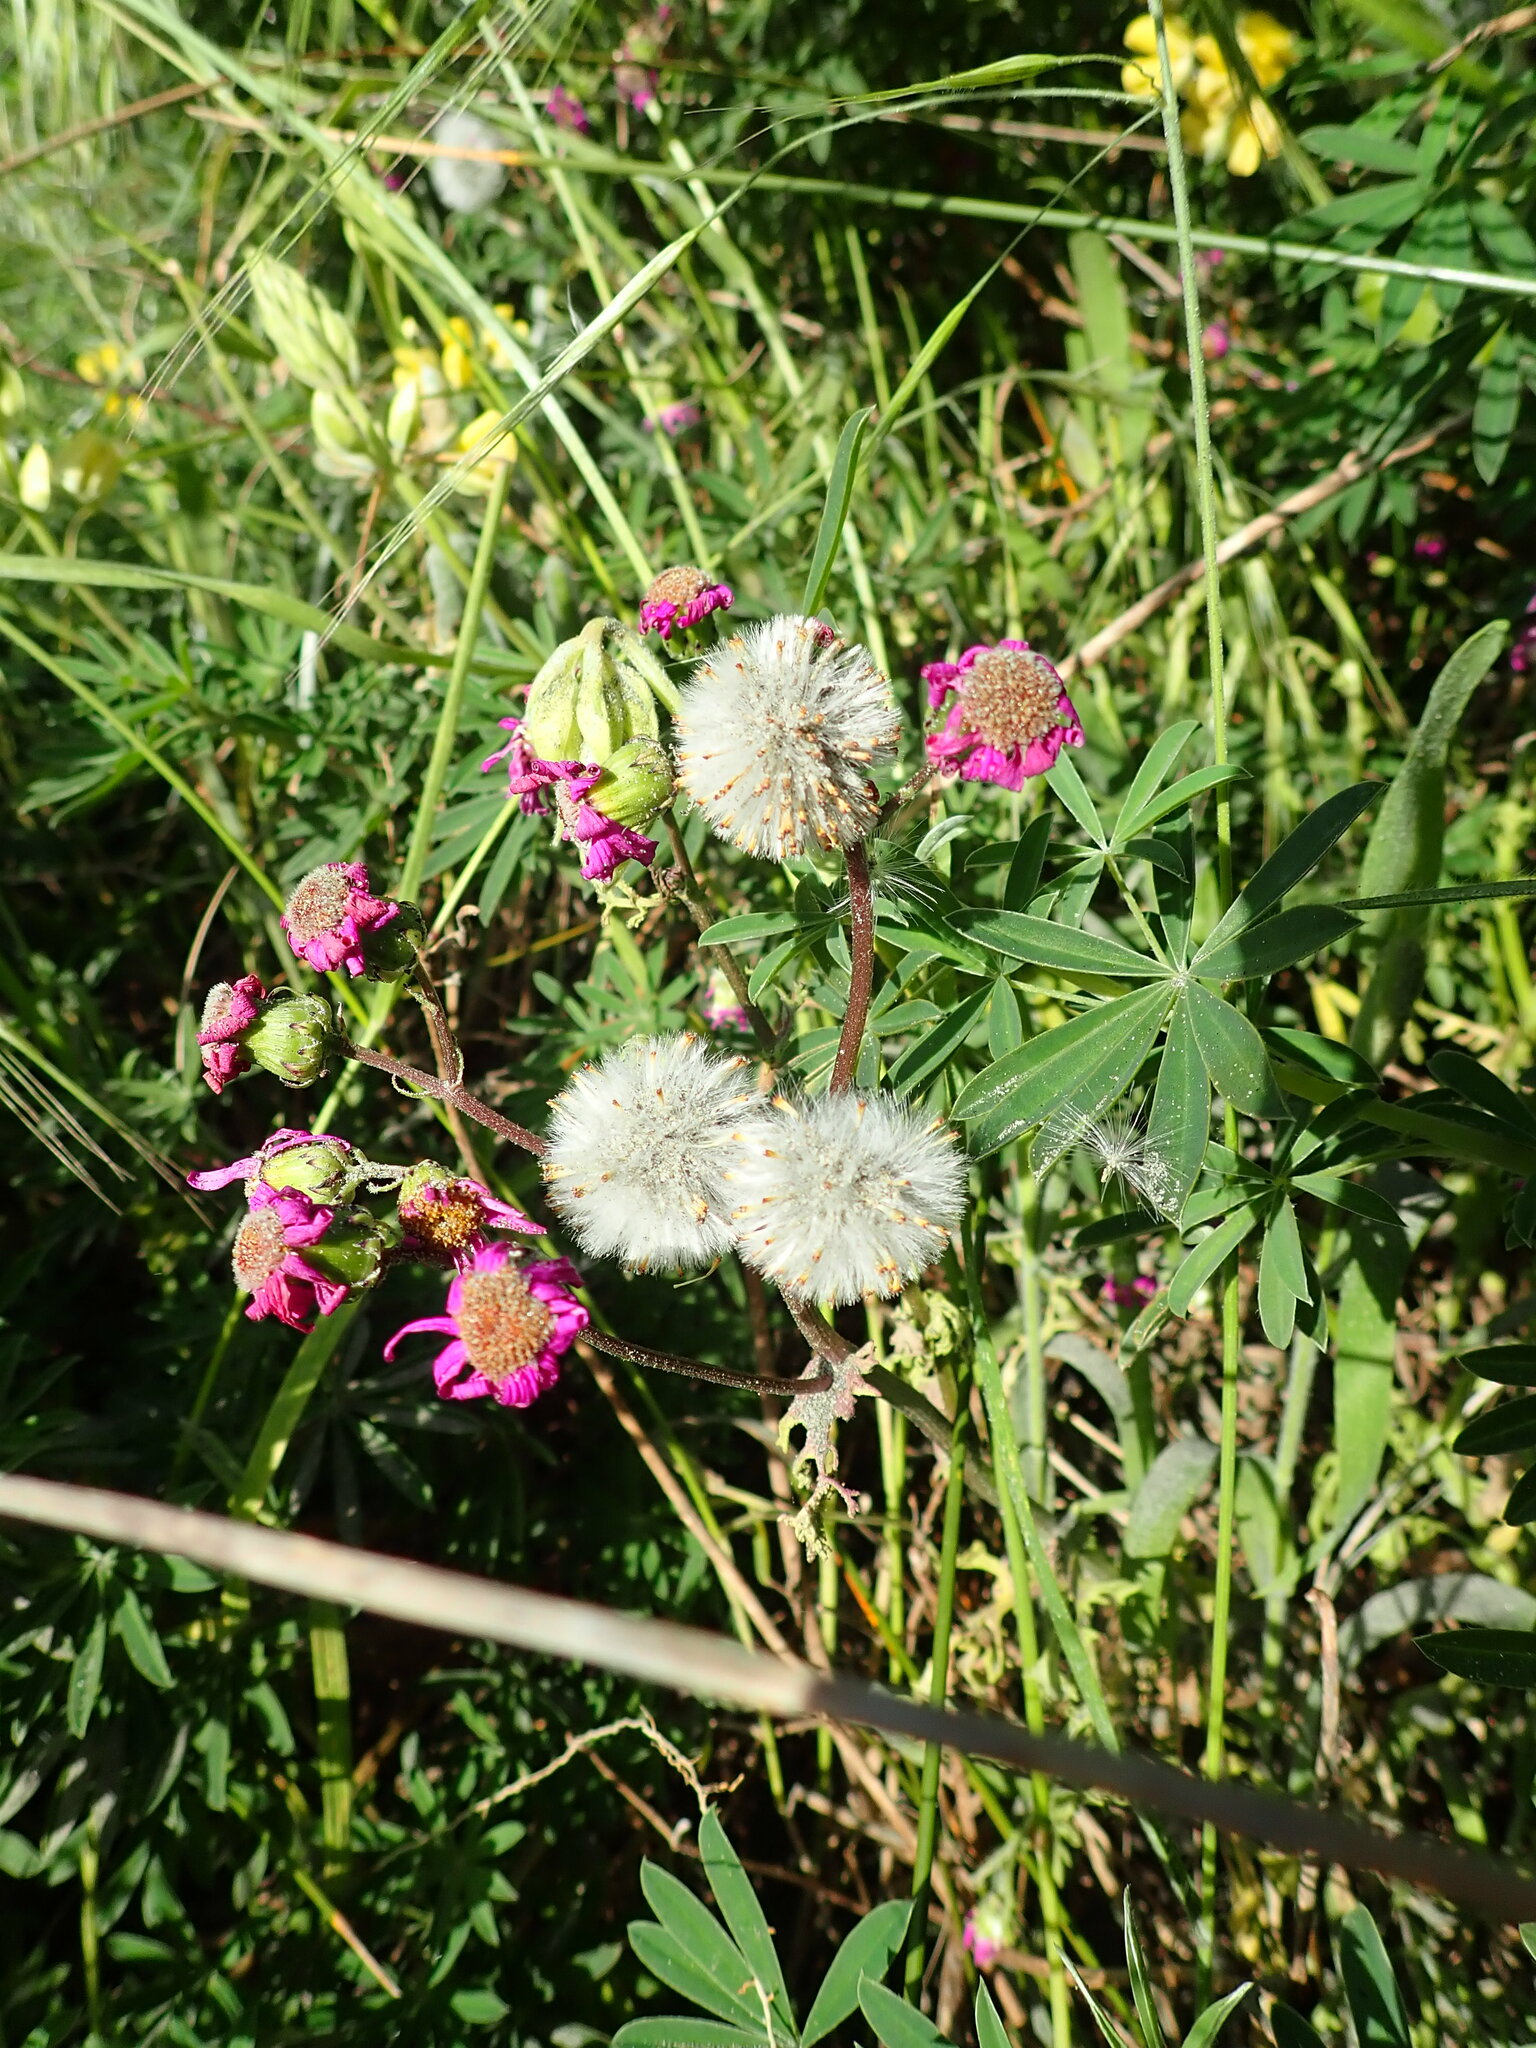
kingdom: Plantae
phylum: Tracheophyta
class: Magnoliopsida
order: Asterales
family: Asteraceae
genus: Senecio
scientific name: Senecio elegans
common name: Purple groundsel
